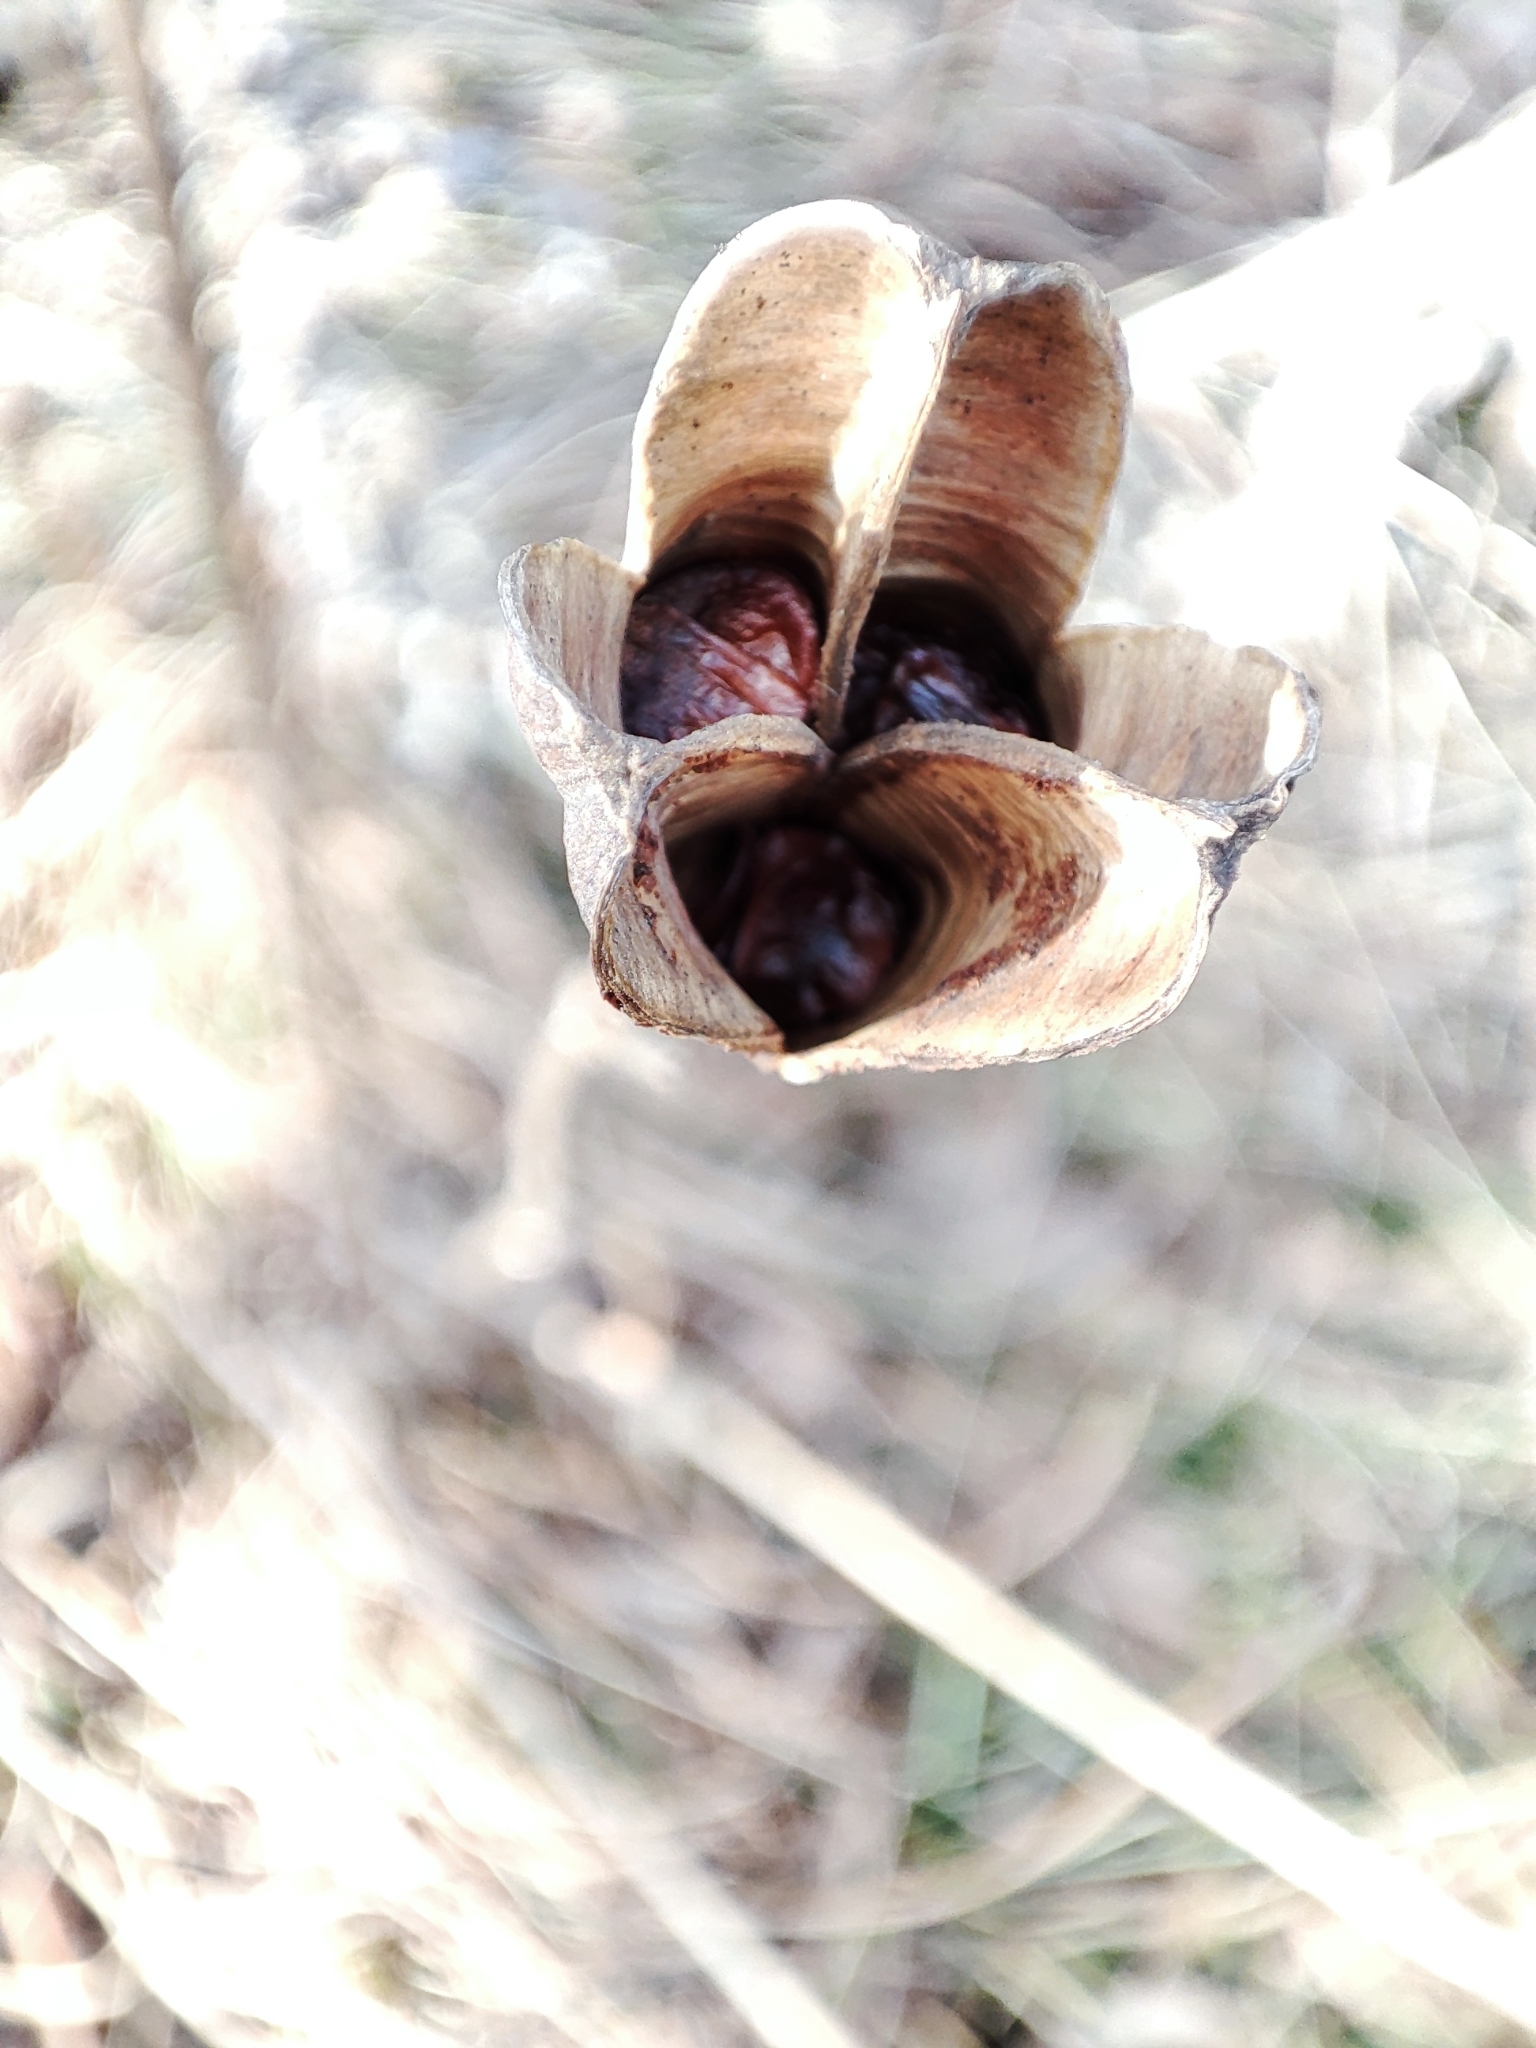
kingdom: Plantae
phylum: Tracheophyta
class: Liliopsida
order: Asparagales
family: Iridaceae
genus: Iris
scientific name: Iris sibirica
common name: Siberian iris
